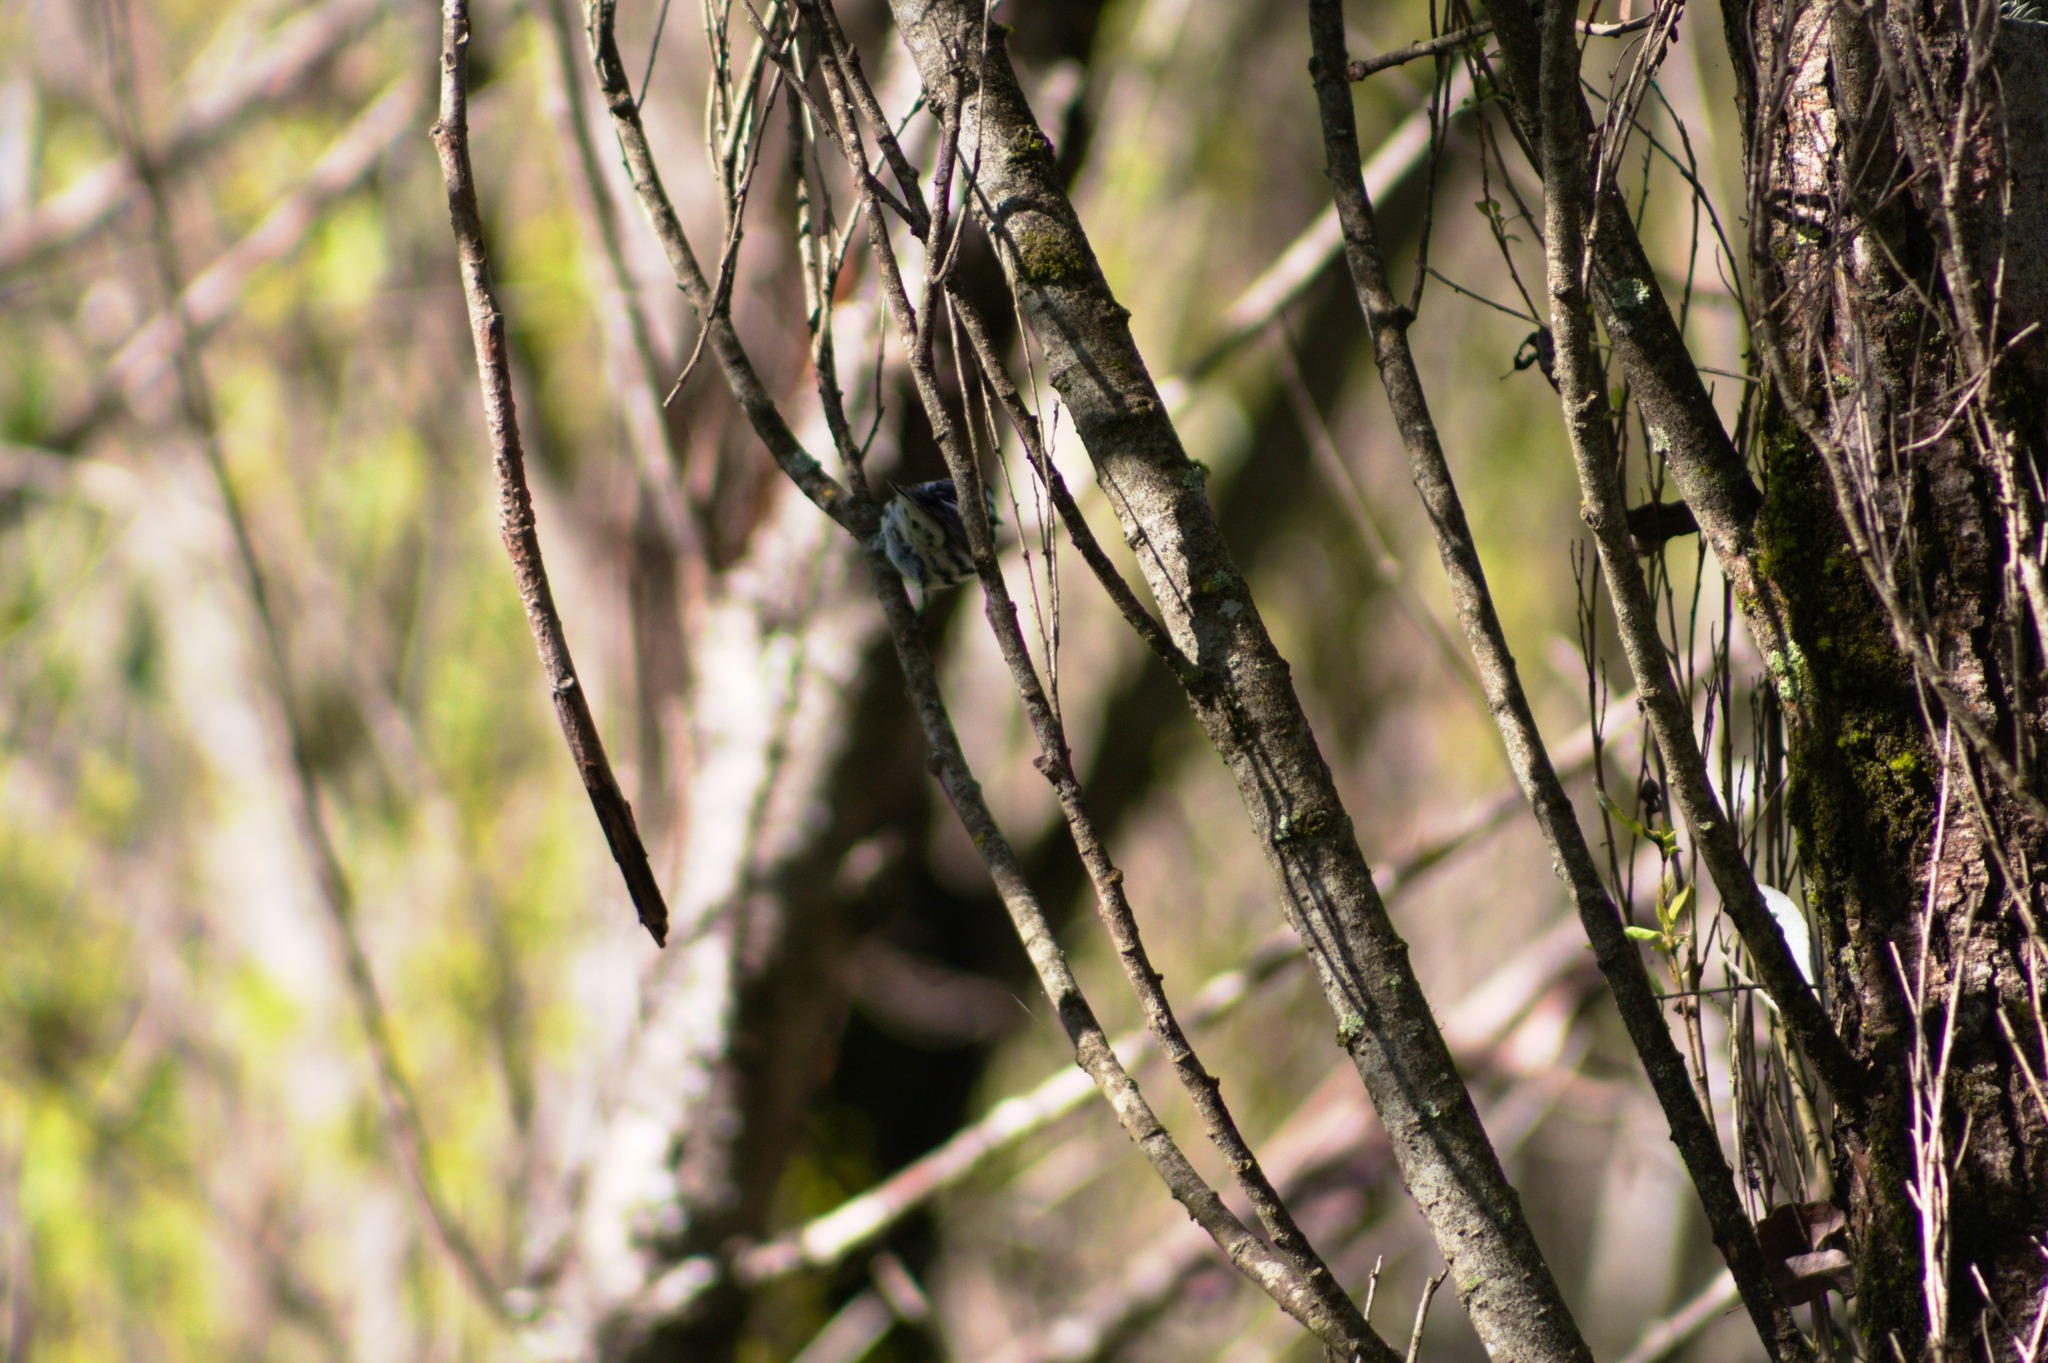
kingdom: Animalia
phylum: Chordata
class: Aves
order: Passeriformes
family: Parulidae
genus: Mniotilta
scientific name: Mniotilta varia
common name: Black-and-white warbler
